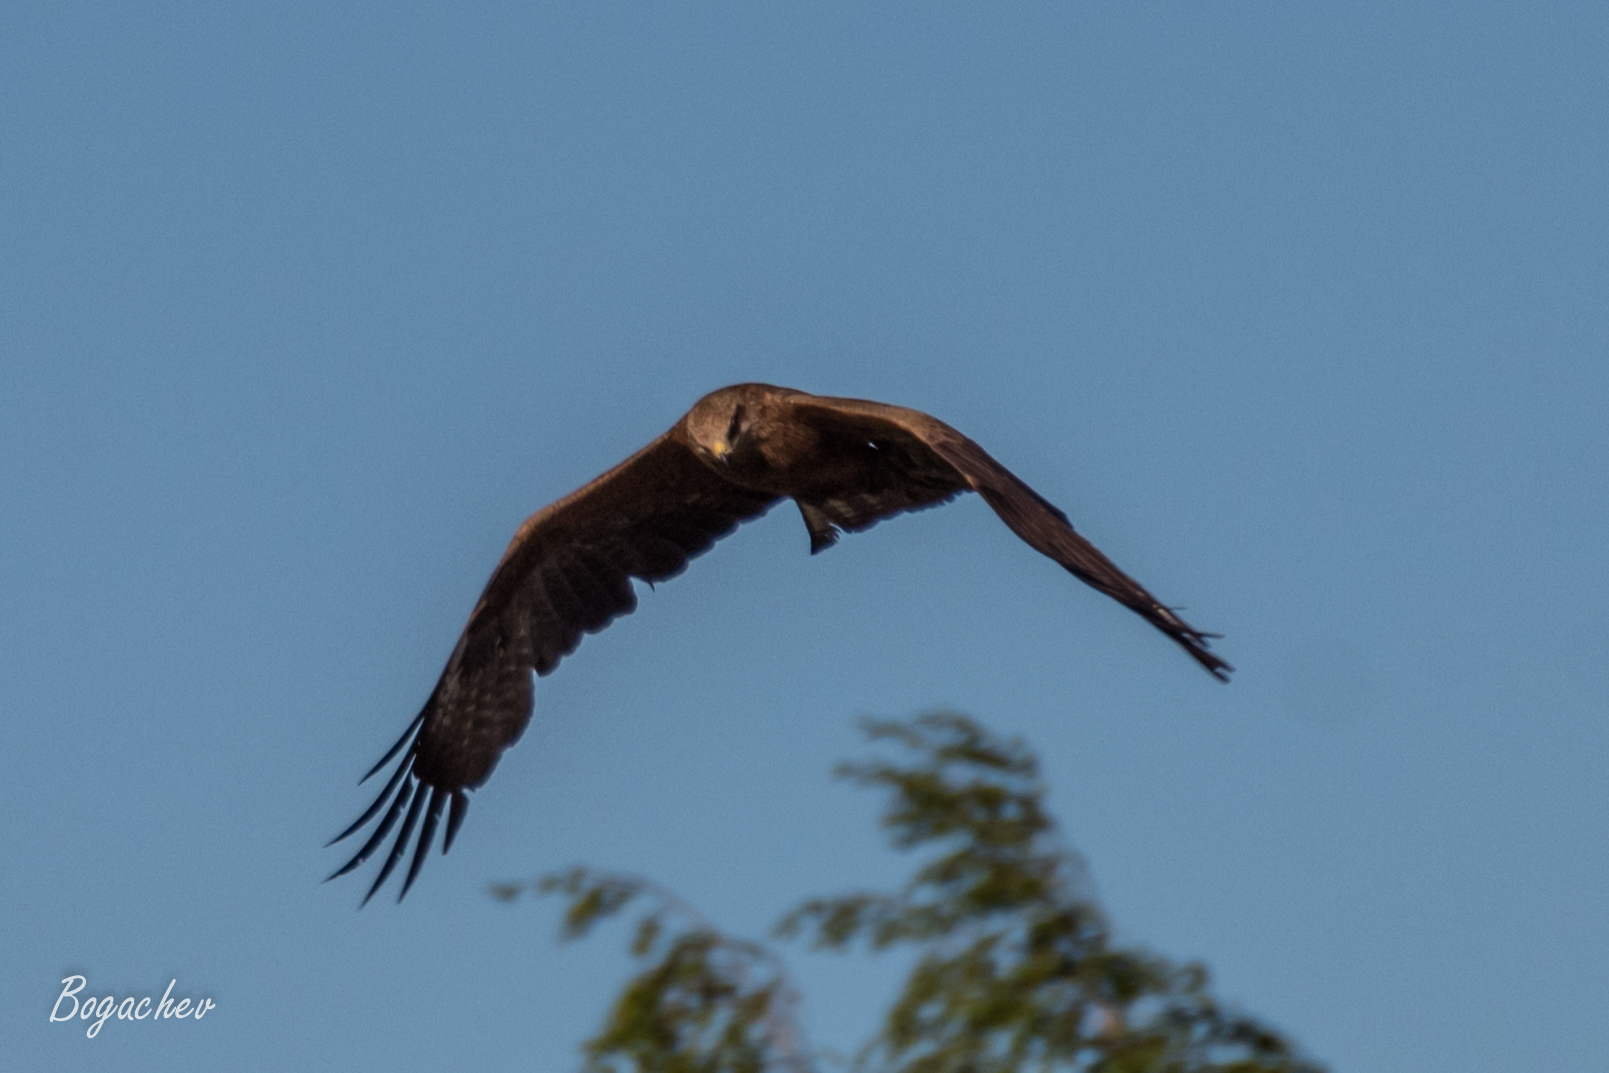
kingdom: Animalia
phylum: Chordata
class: Aves
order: Accipitriformes
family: Accipitridae
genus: Milvus
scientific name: Milvus migrans
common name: Black kite
